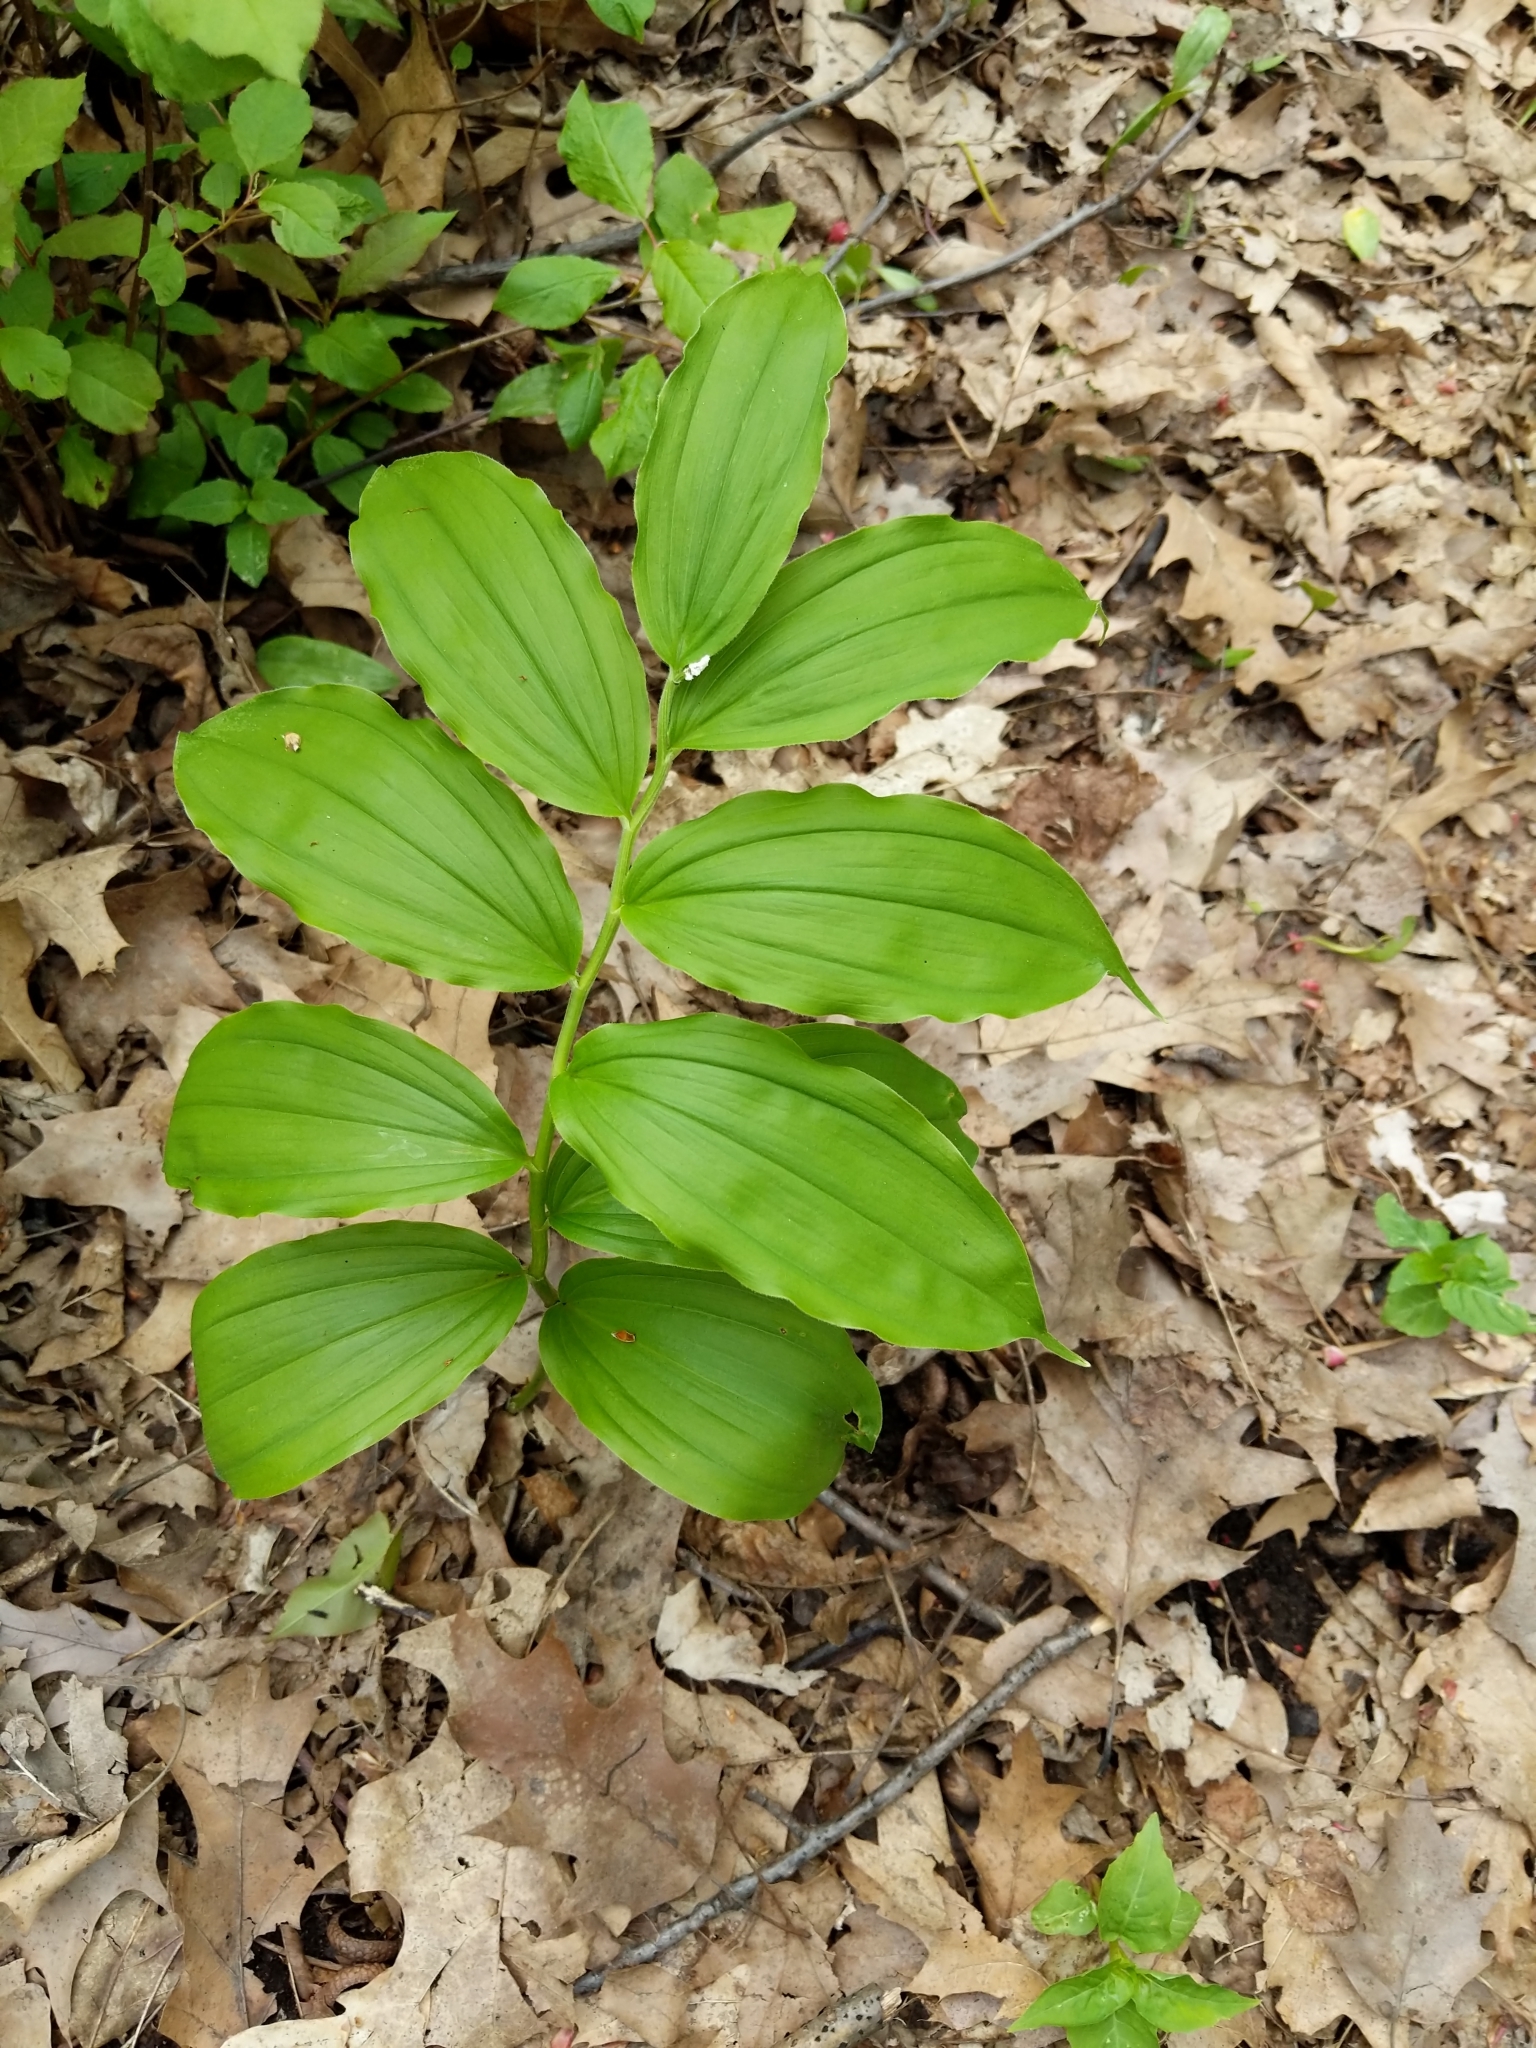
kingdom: Plantae
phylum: Tracheophyta
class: Liliopsida
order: Asparagales
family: Asparagaceae
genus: Maianthemum
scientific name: Maianthemum racemosum
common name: False spikenard
